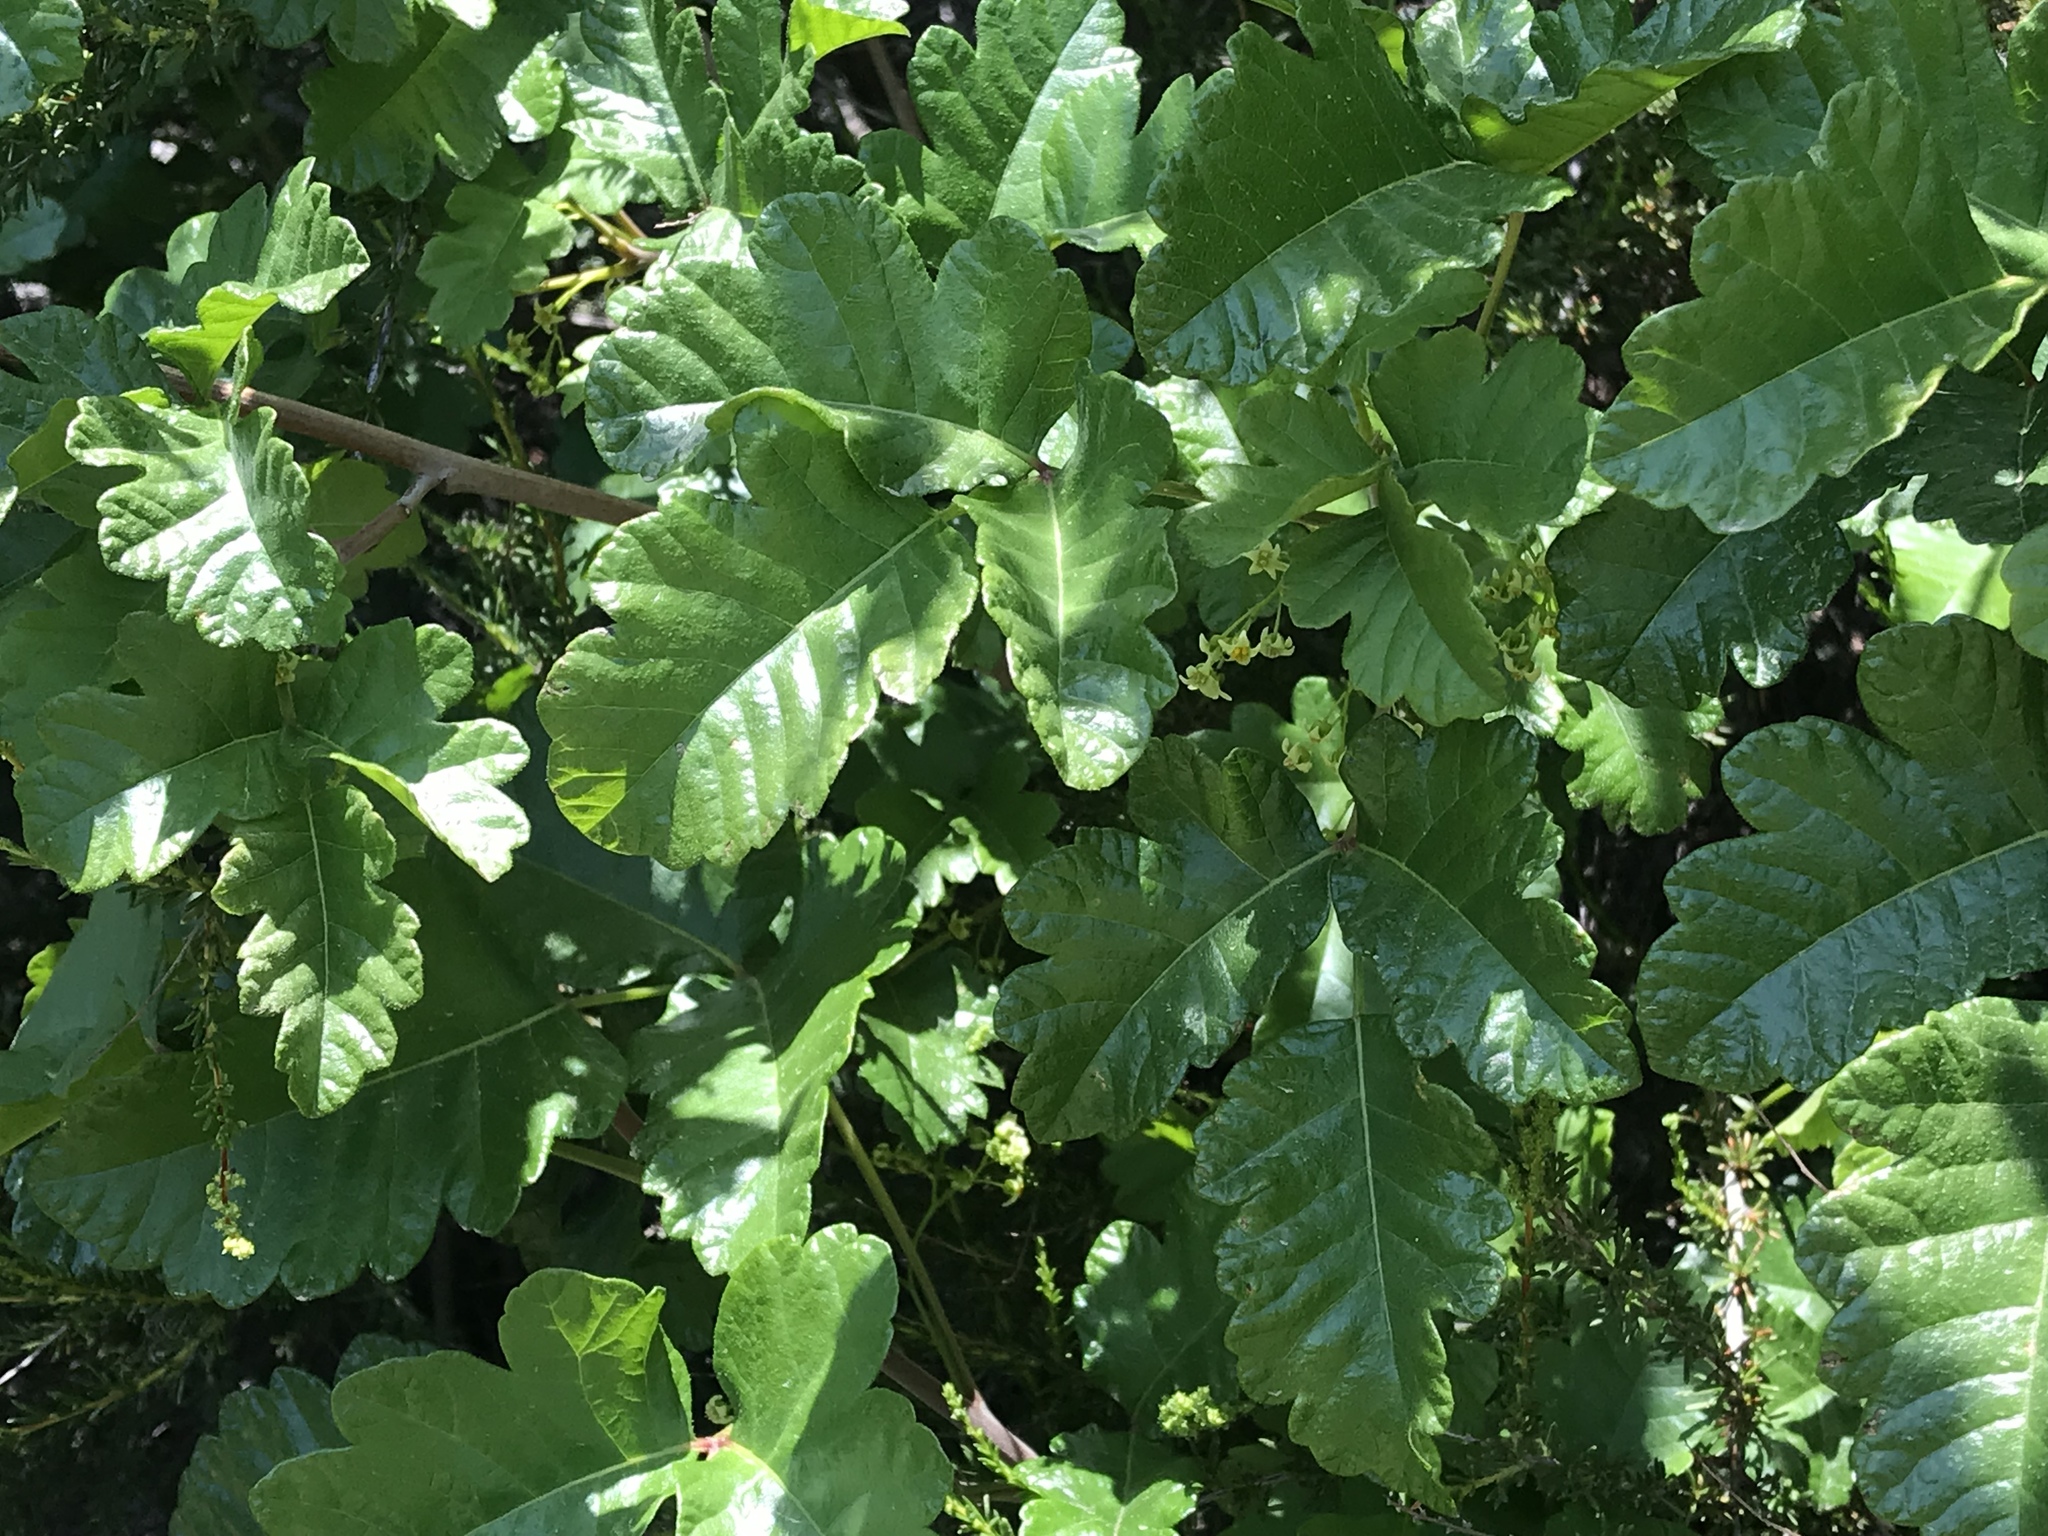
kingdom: Plantae
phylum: Tracheophyta
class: Magnoliopsida
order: Sapindales
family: Anacardiaceae
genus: Toxicodendron
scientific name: Toxicodendron diversilobum
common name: Pacific poison-oak
